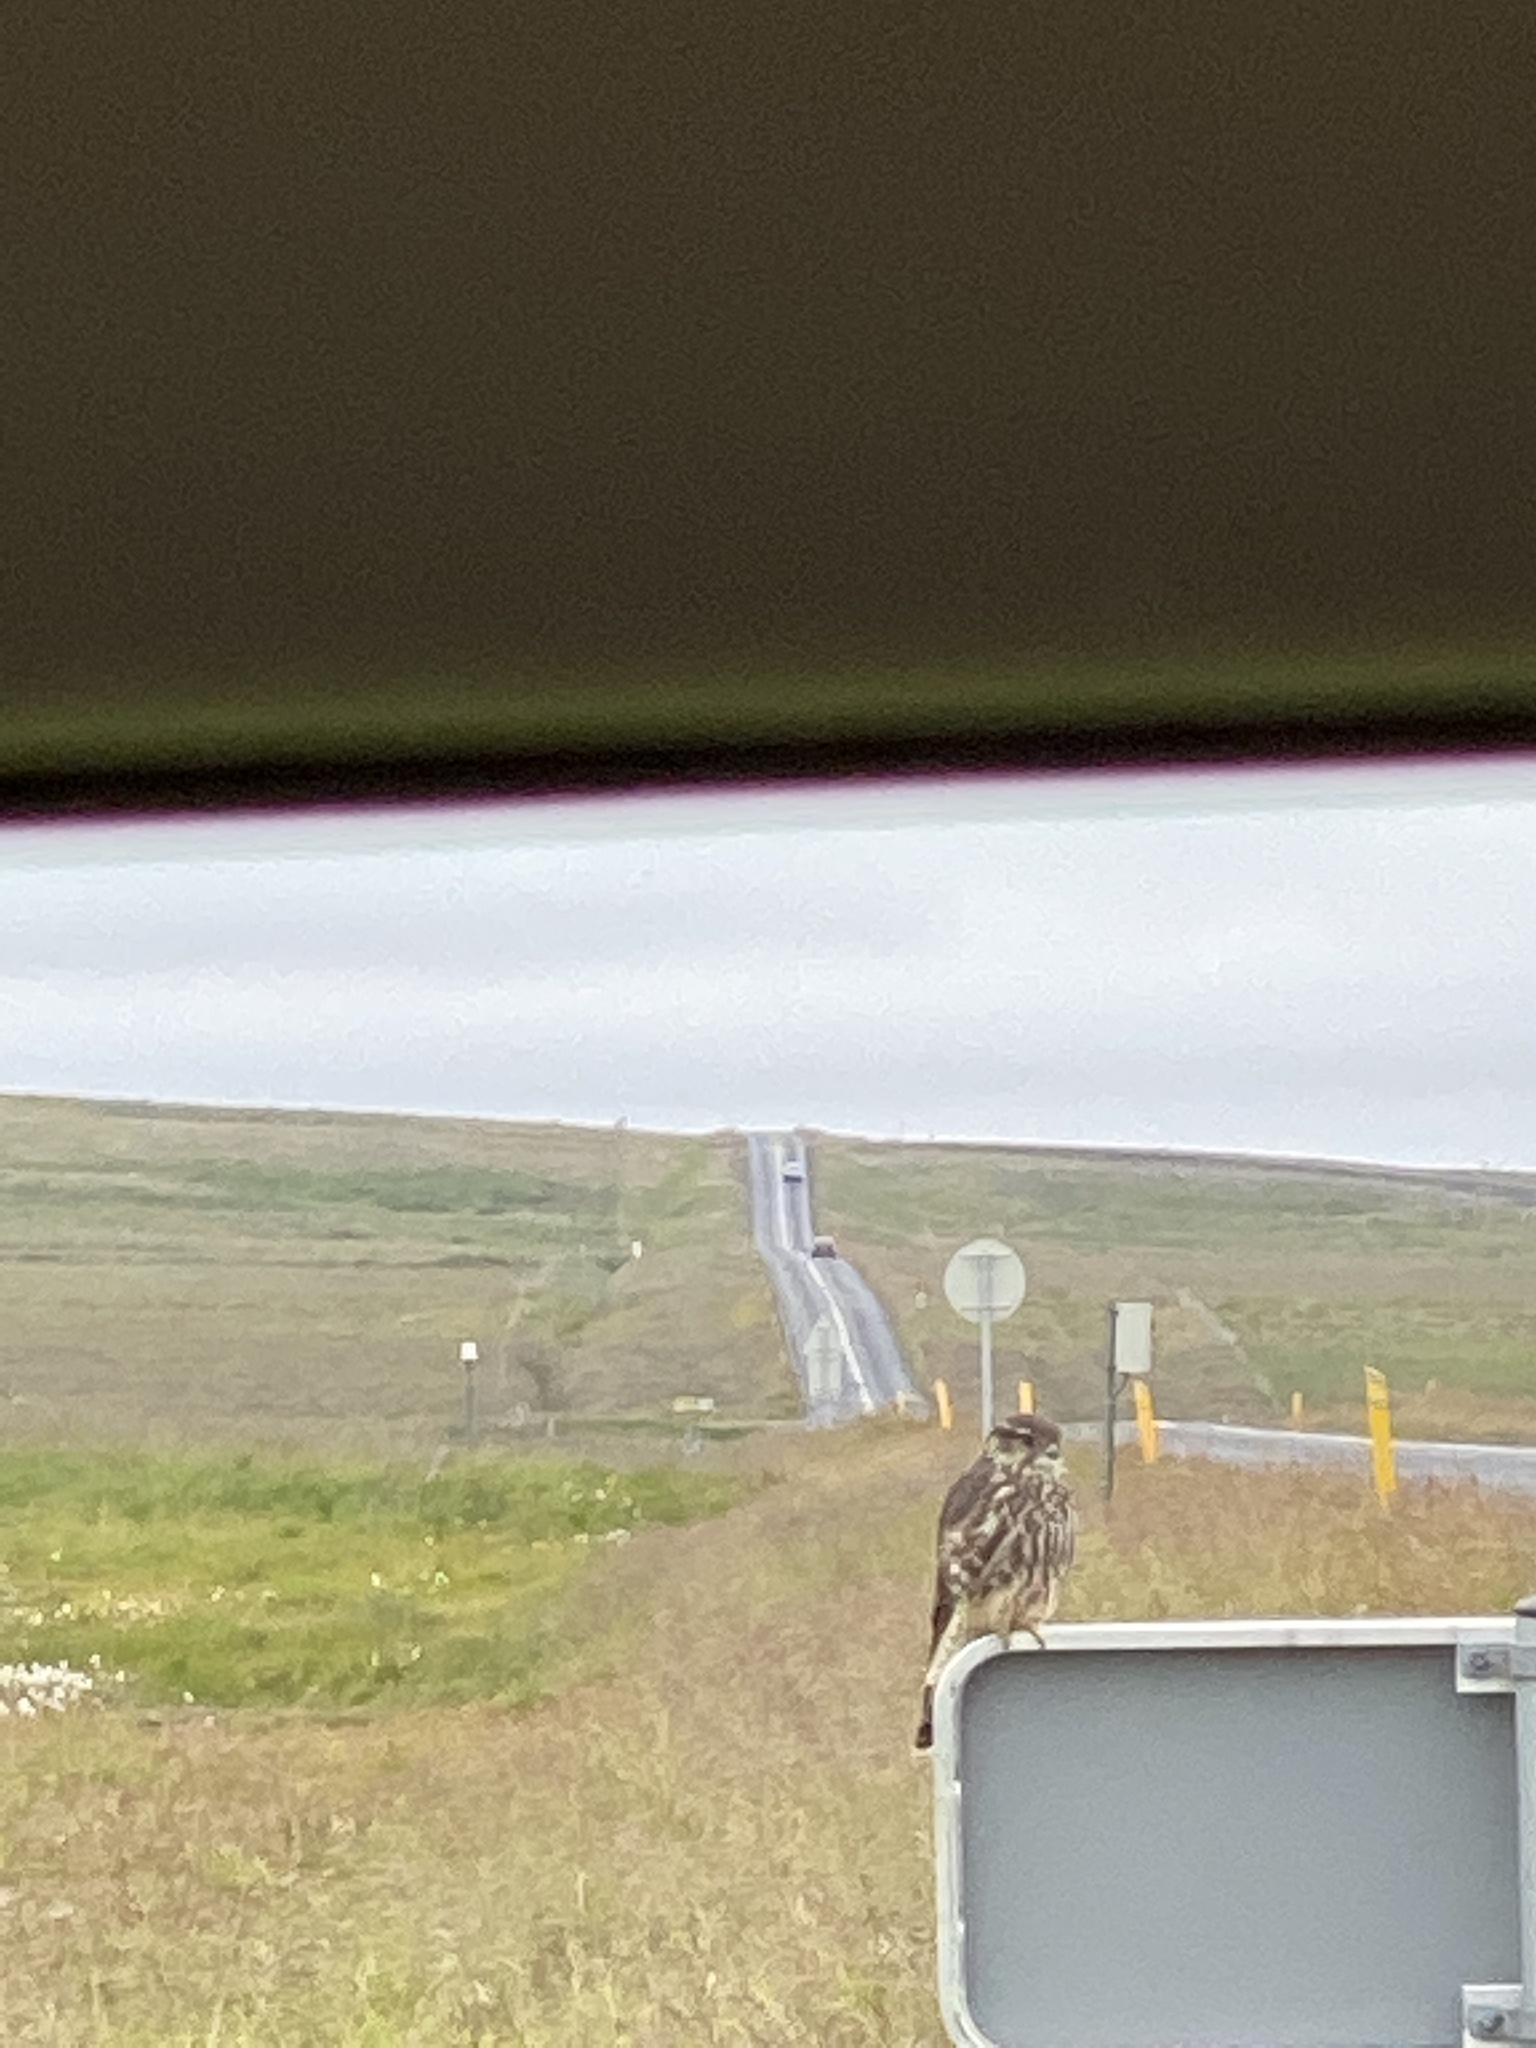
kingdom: Animalia
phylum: Chordata
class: Aves
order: Falconiformes
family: Falconidae
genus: Falco
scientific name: Falco columbarius
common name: Merlin
